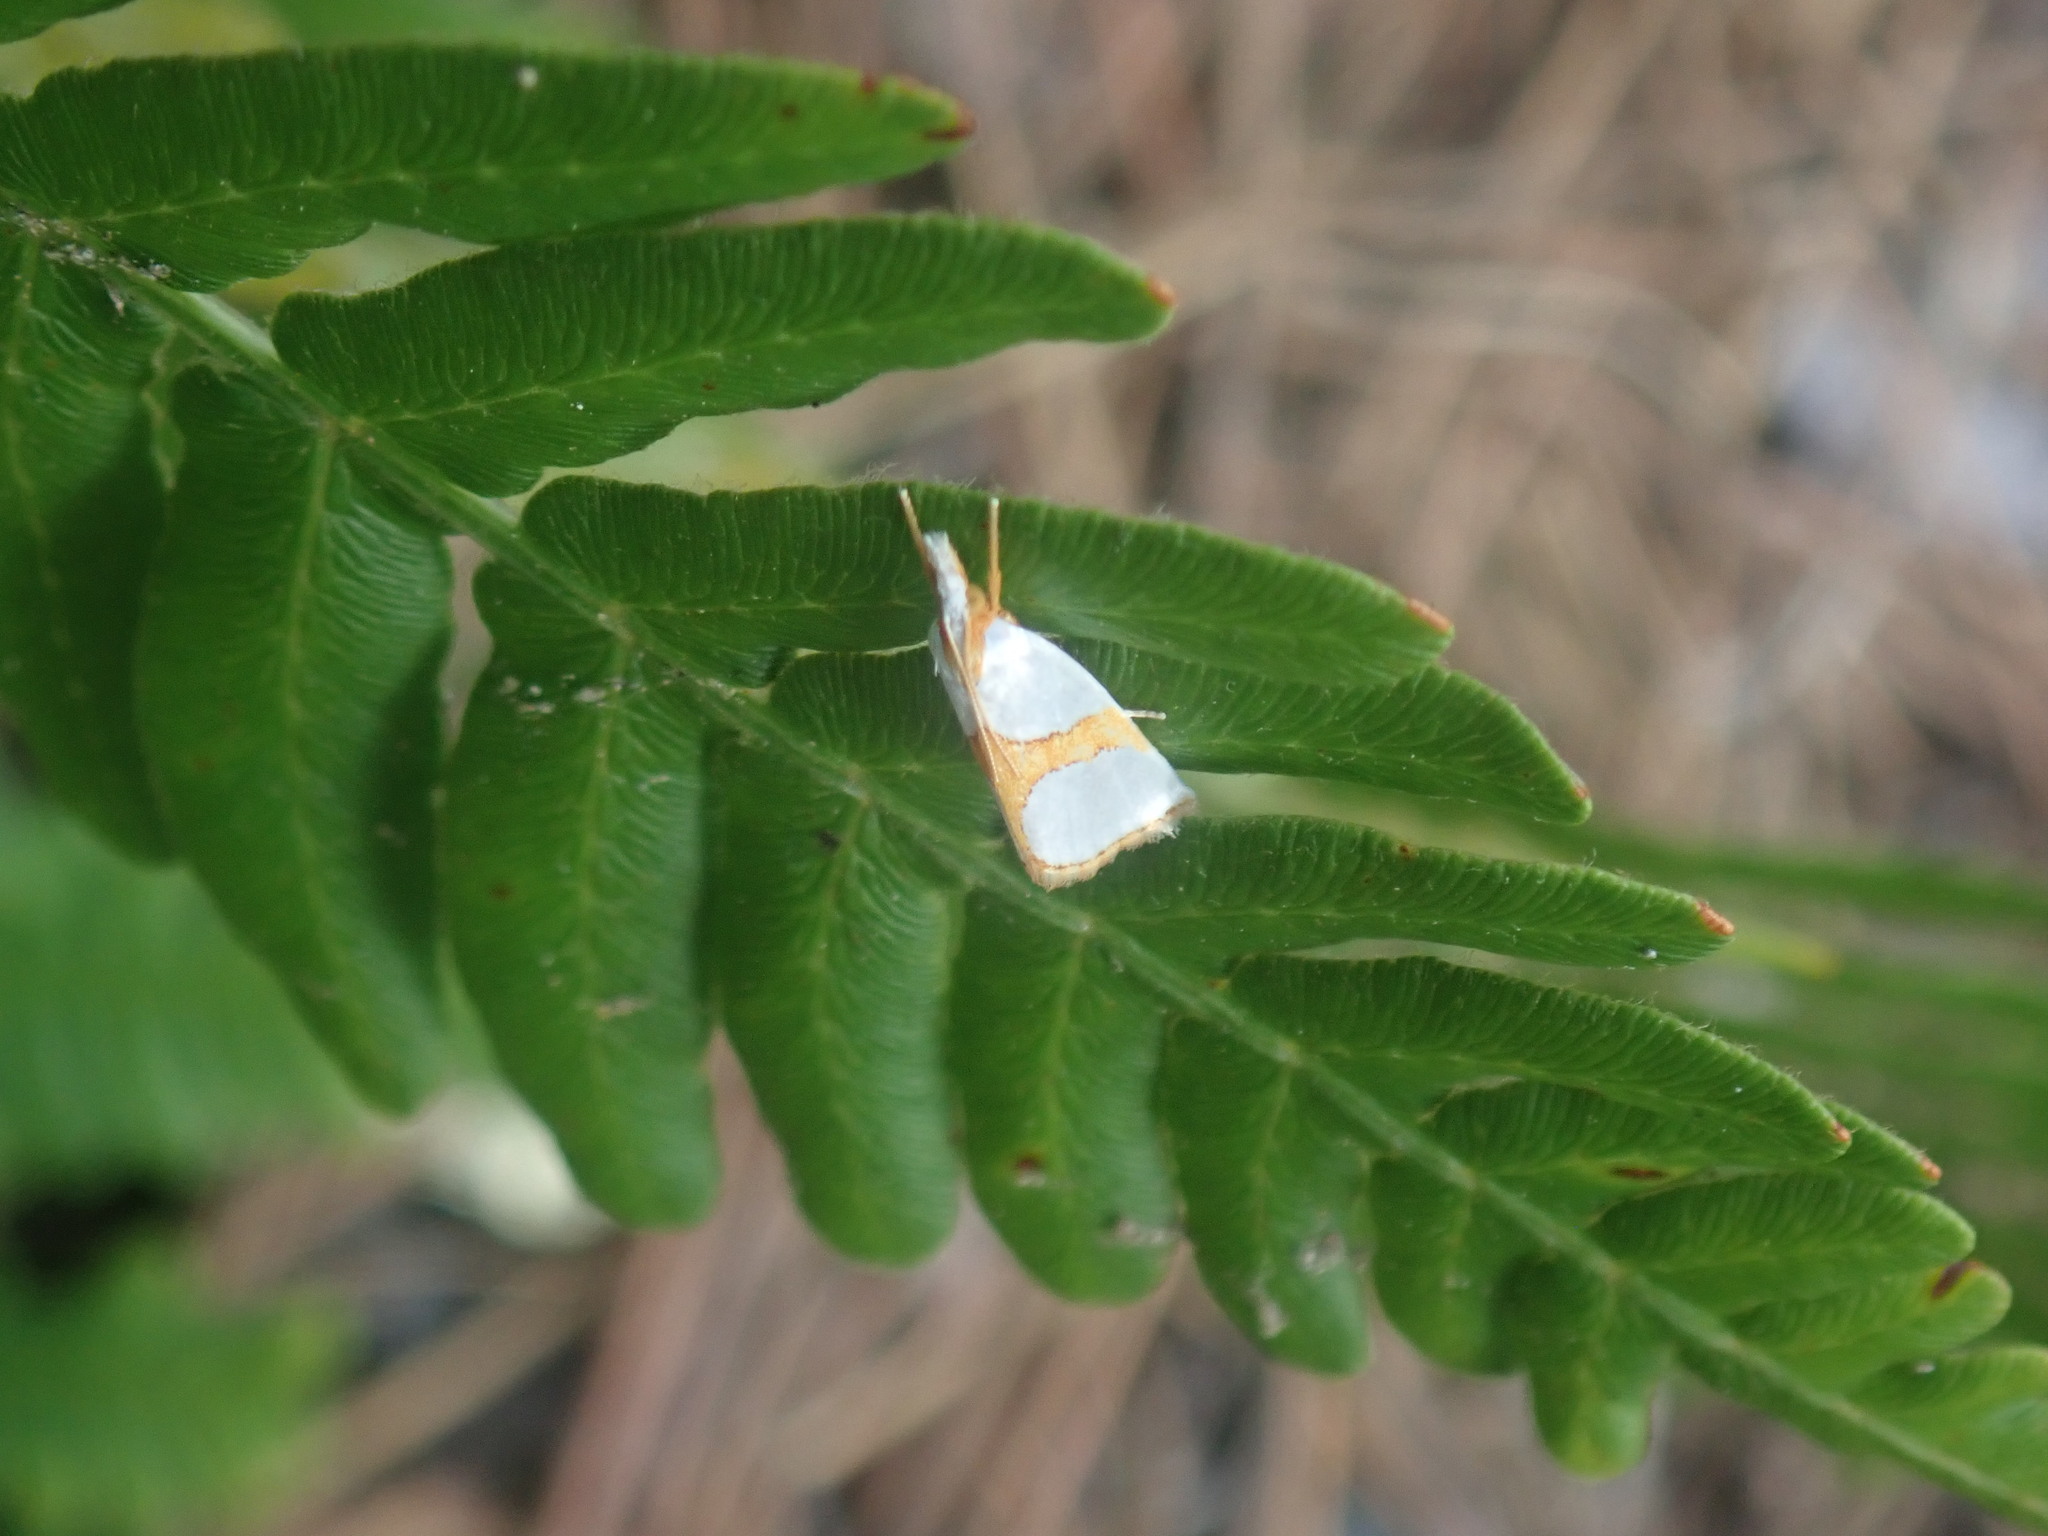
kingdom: Animalia
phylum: Arthropoda
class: Insecta
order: Lepidoptera
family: Crambidae
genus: Argyria
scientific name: Argyria auratella
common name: Curve-lined argyria moth
